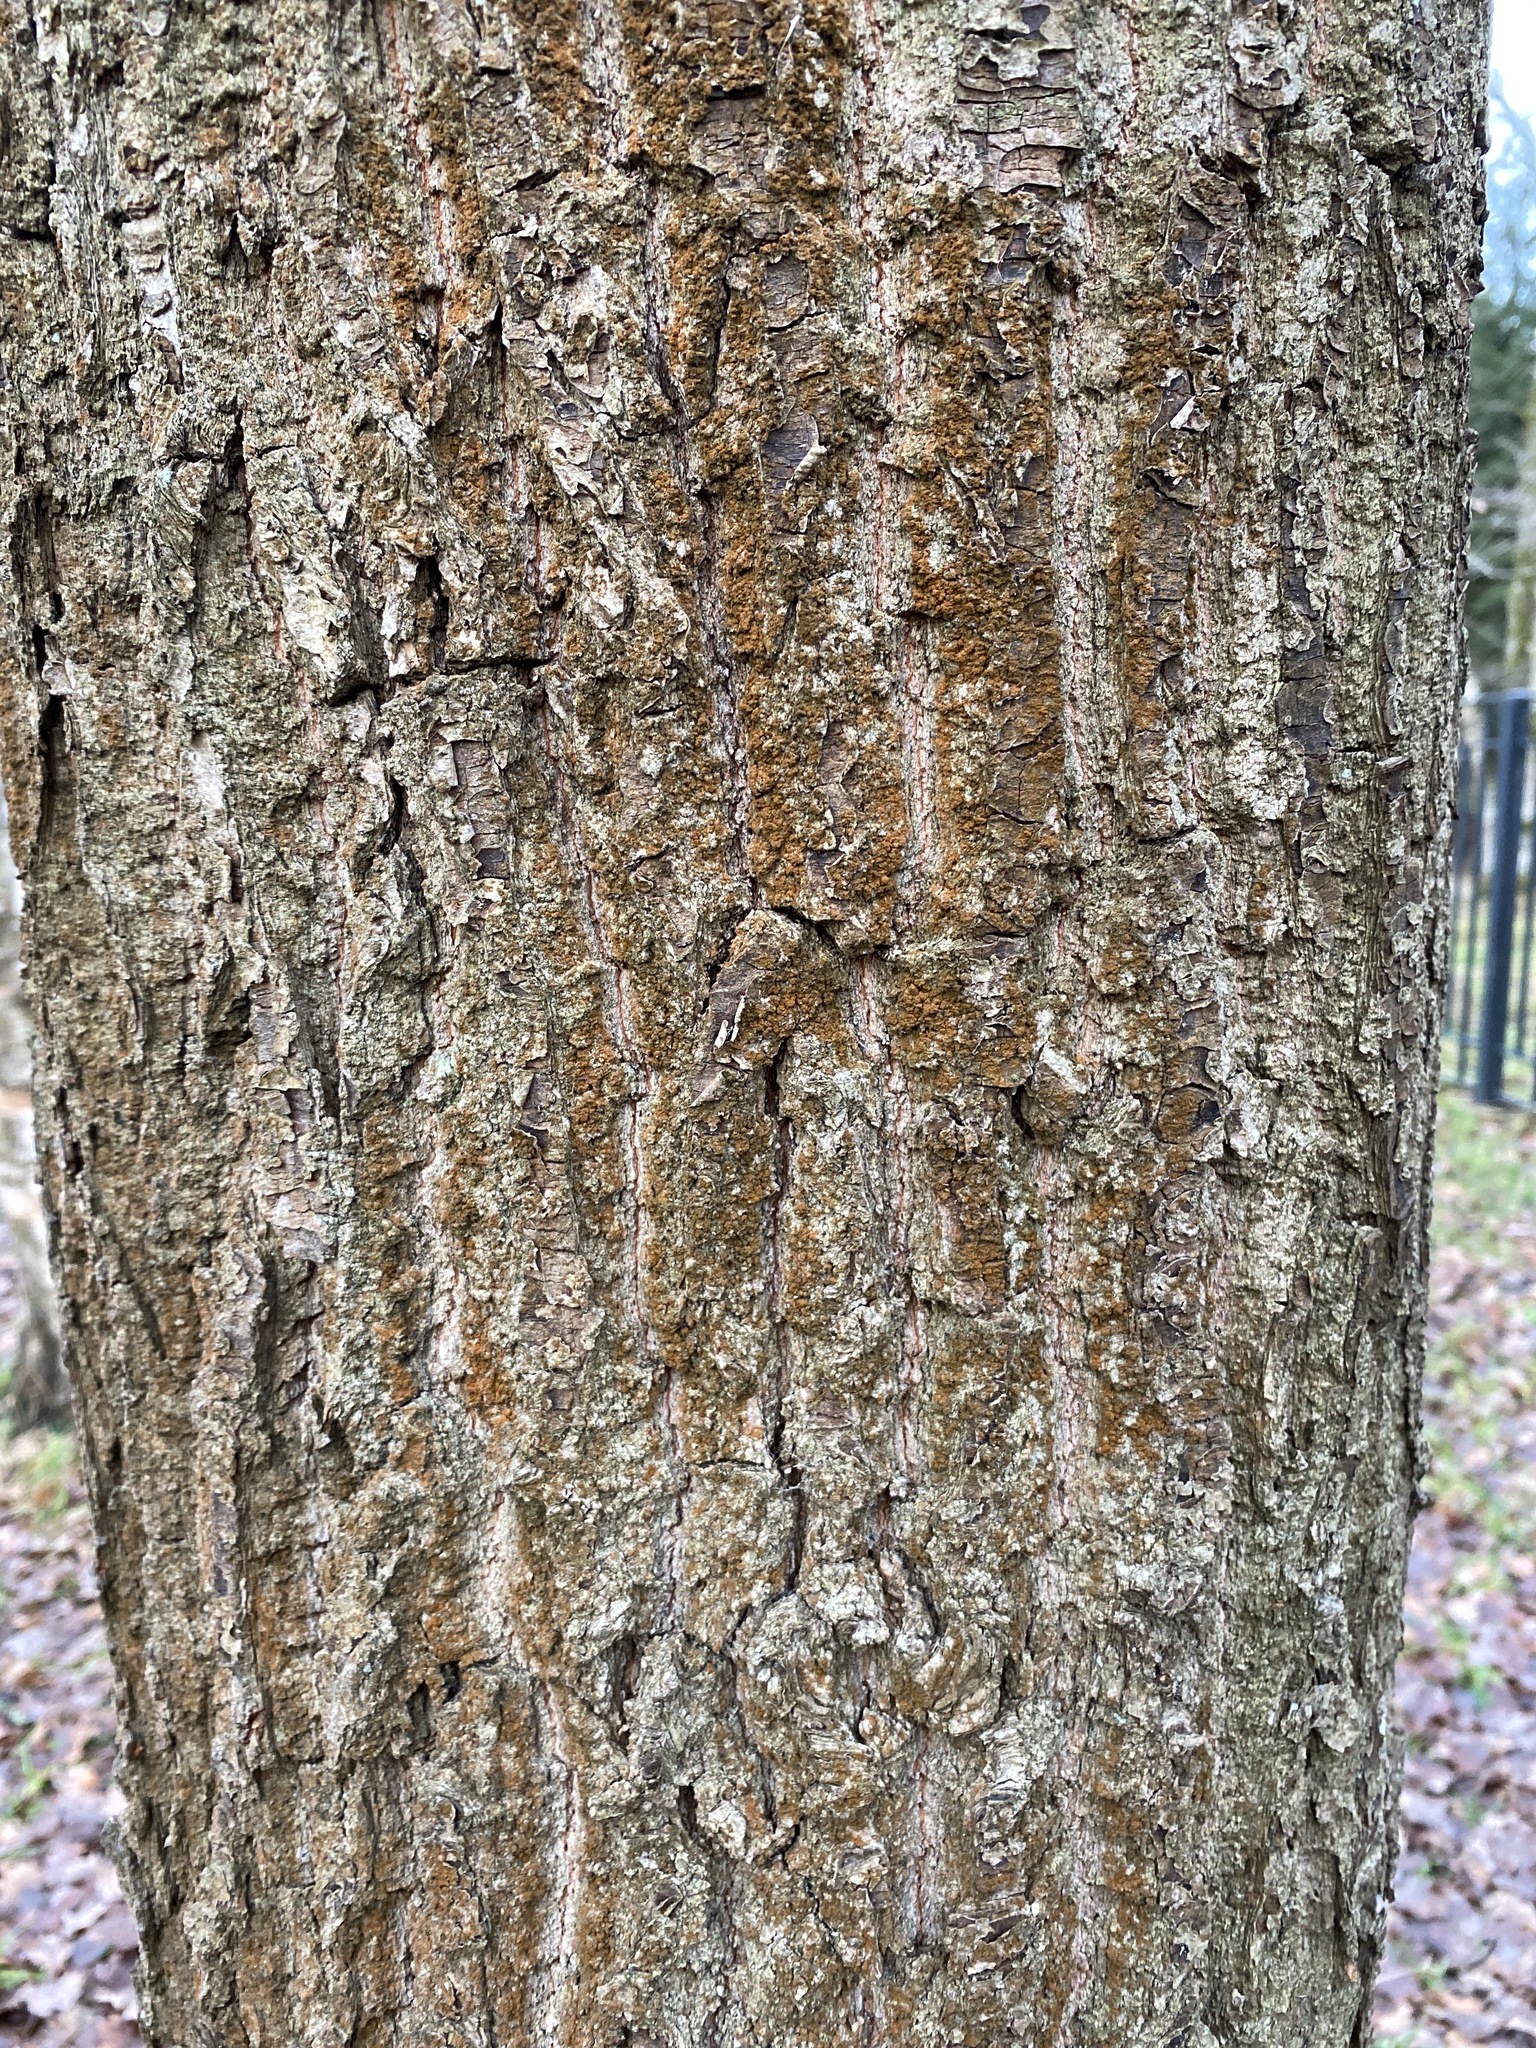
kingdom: Plantae
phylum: Tracheophyta
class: Magnoliopsida
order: Fagales
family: Fagaceae
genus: Quercus
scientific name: Quercus robur
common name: Pedunculate oak
